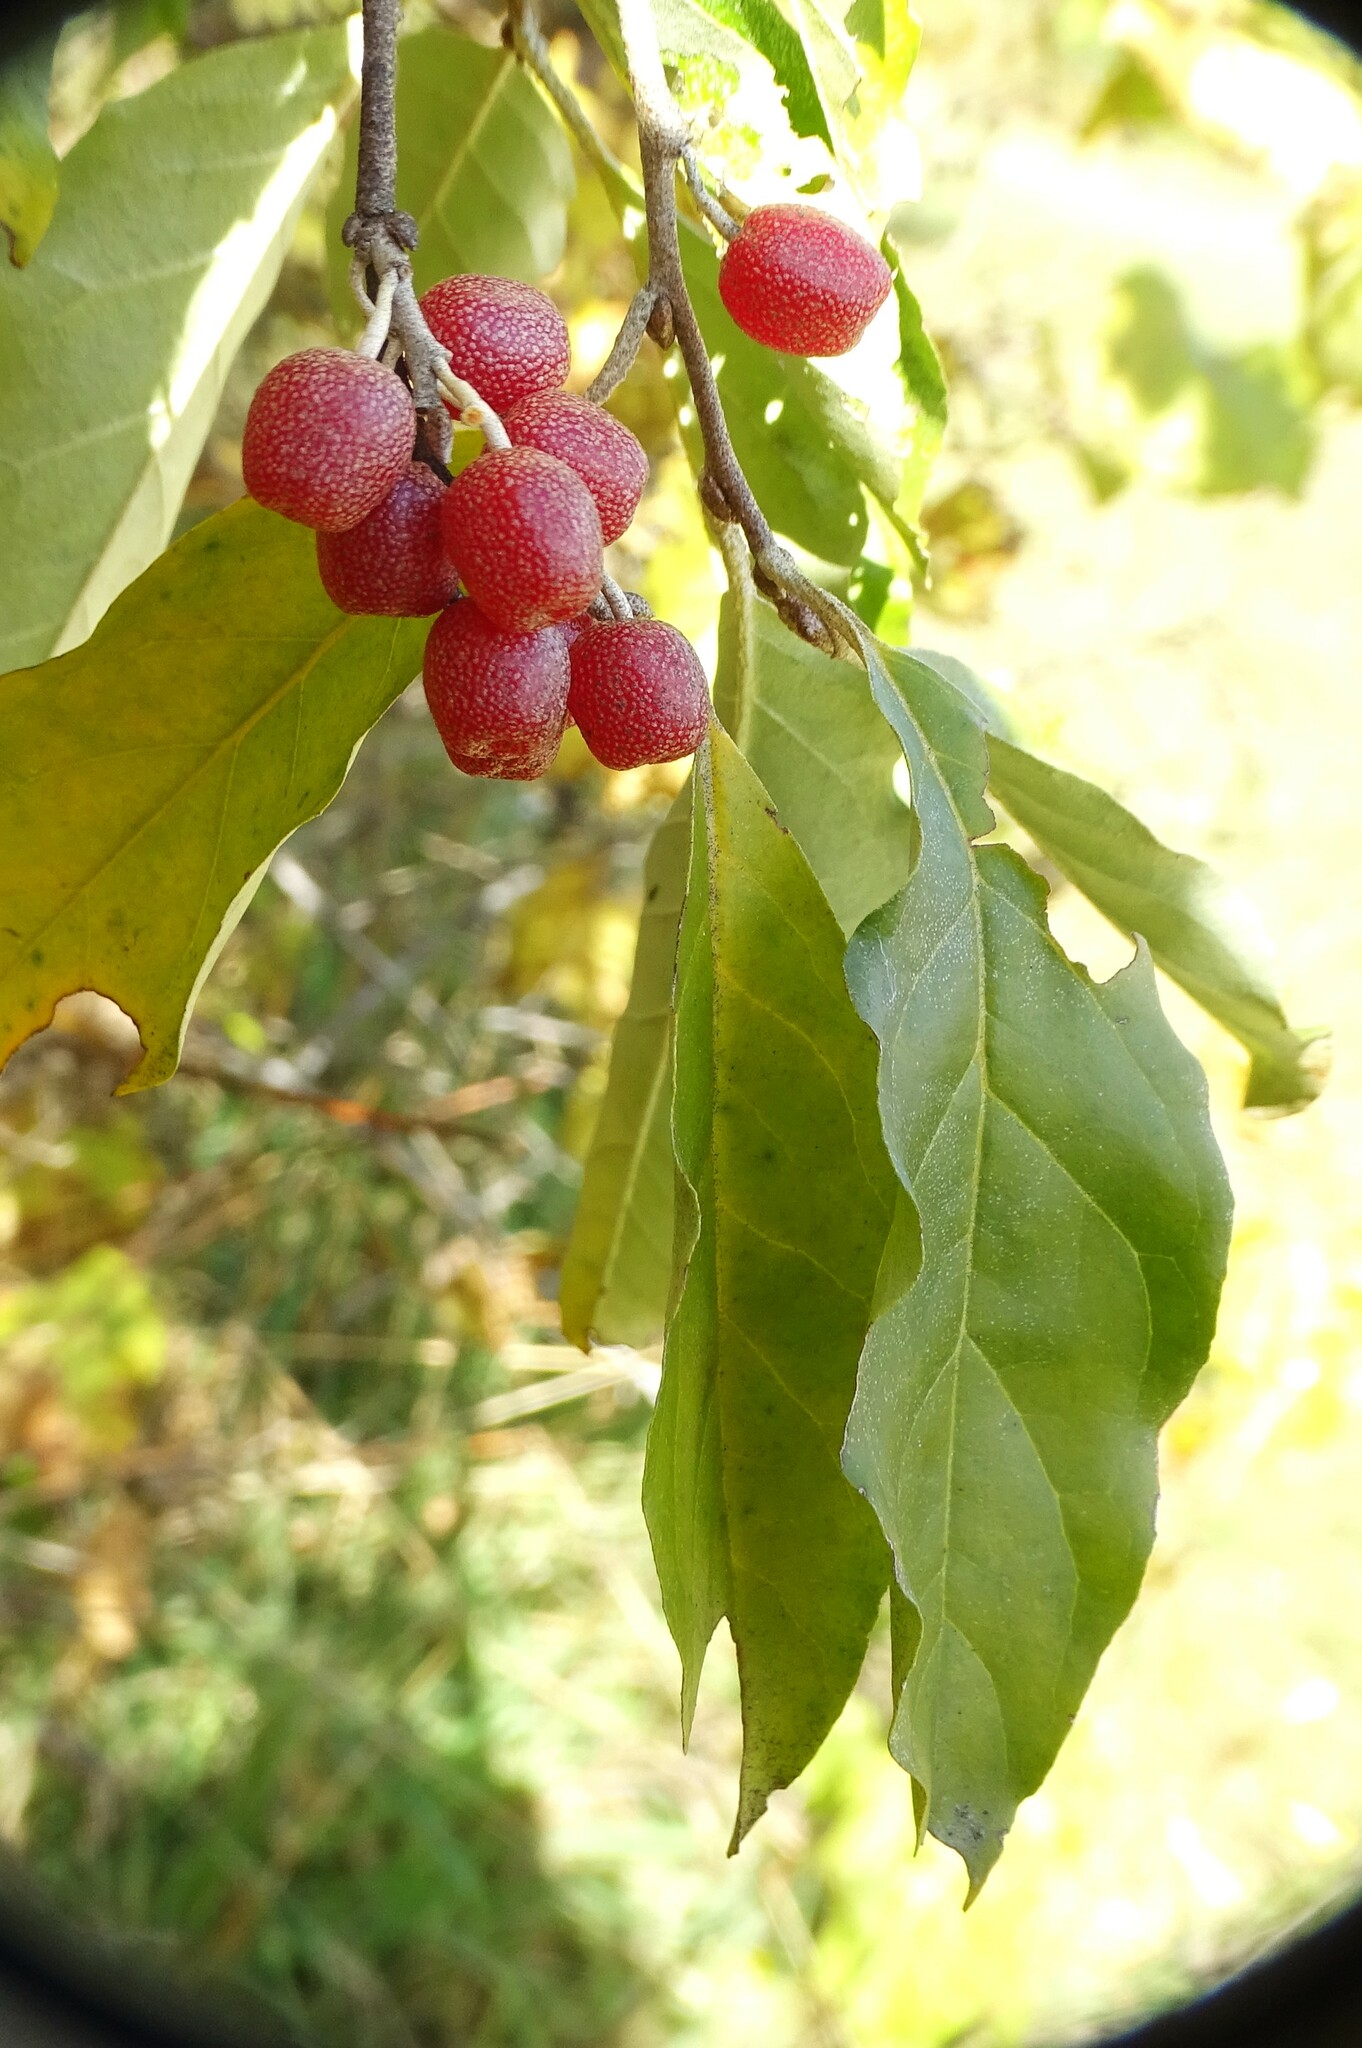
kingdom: Plantae
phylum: Tracheophyta
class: Magnoliopsida
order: Rosales
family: Elaeagnaceae
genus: Elaeagnus
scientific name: Elaeagnus umbellata
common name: Autumn olive
